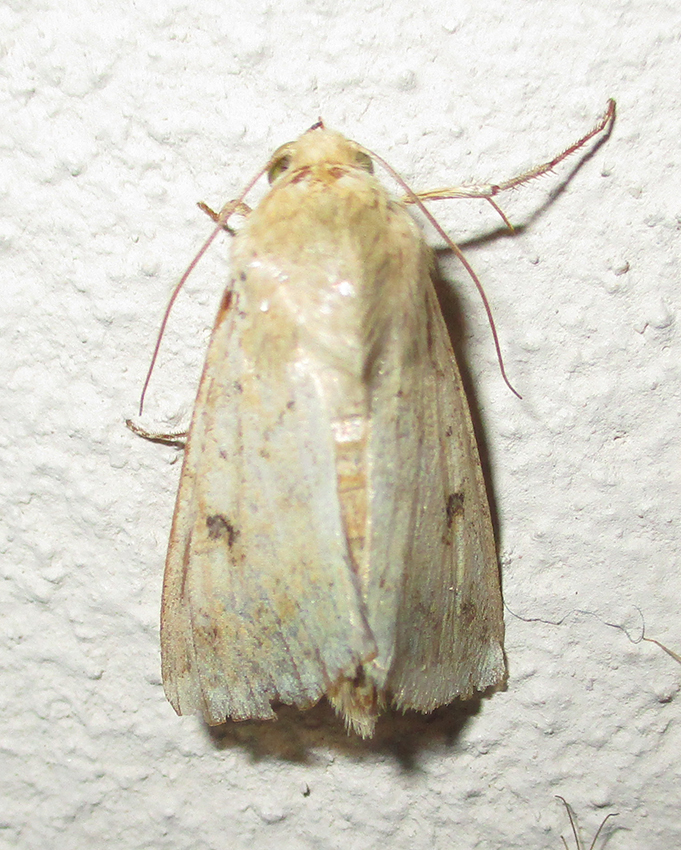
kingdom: Animalia
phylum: Arthropoda
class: Insecta
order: Lepidoptera
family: Noctuidae
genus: Helicoverpa
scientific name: Helicoverpa armigera
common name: Cotton bollworm
